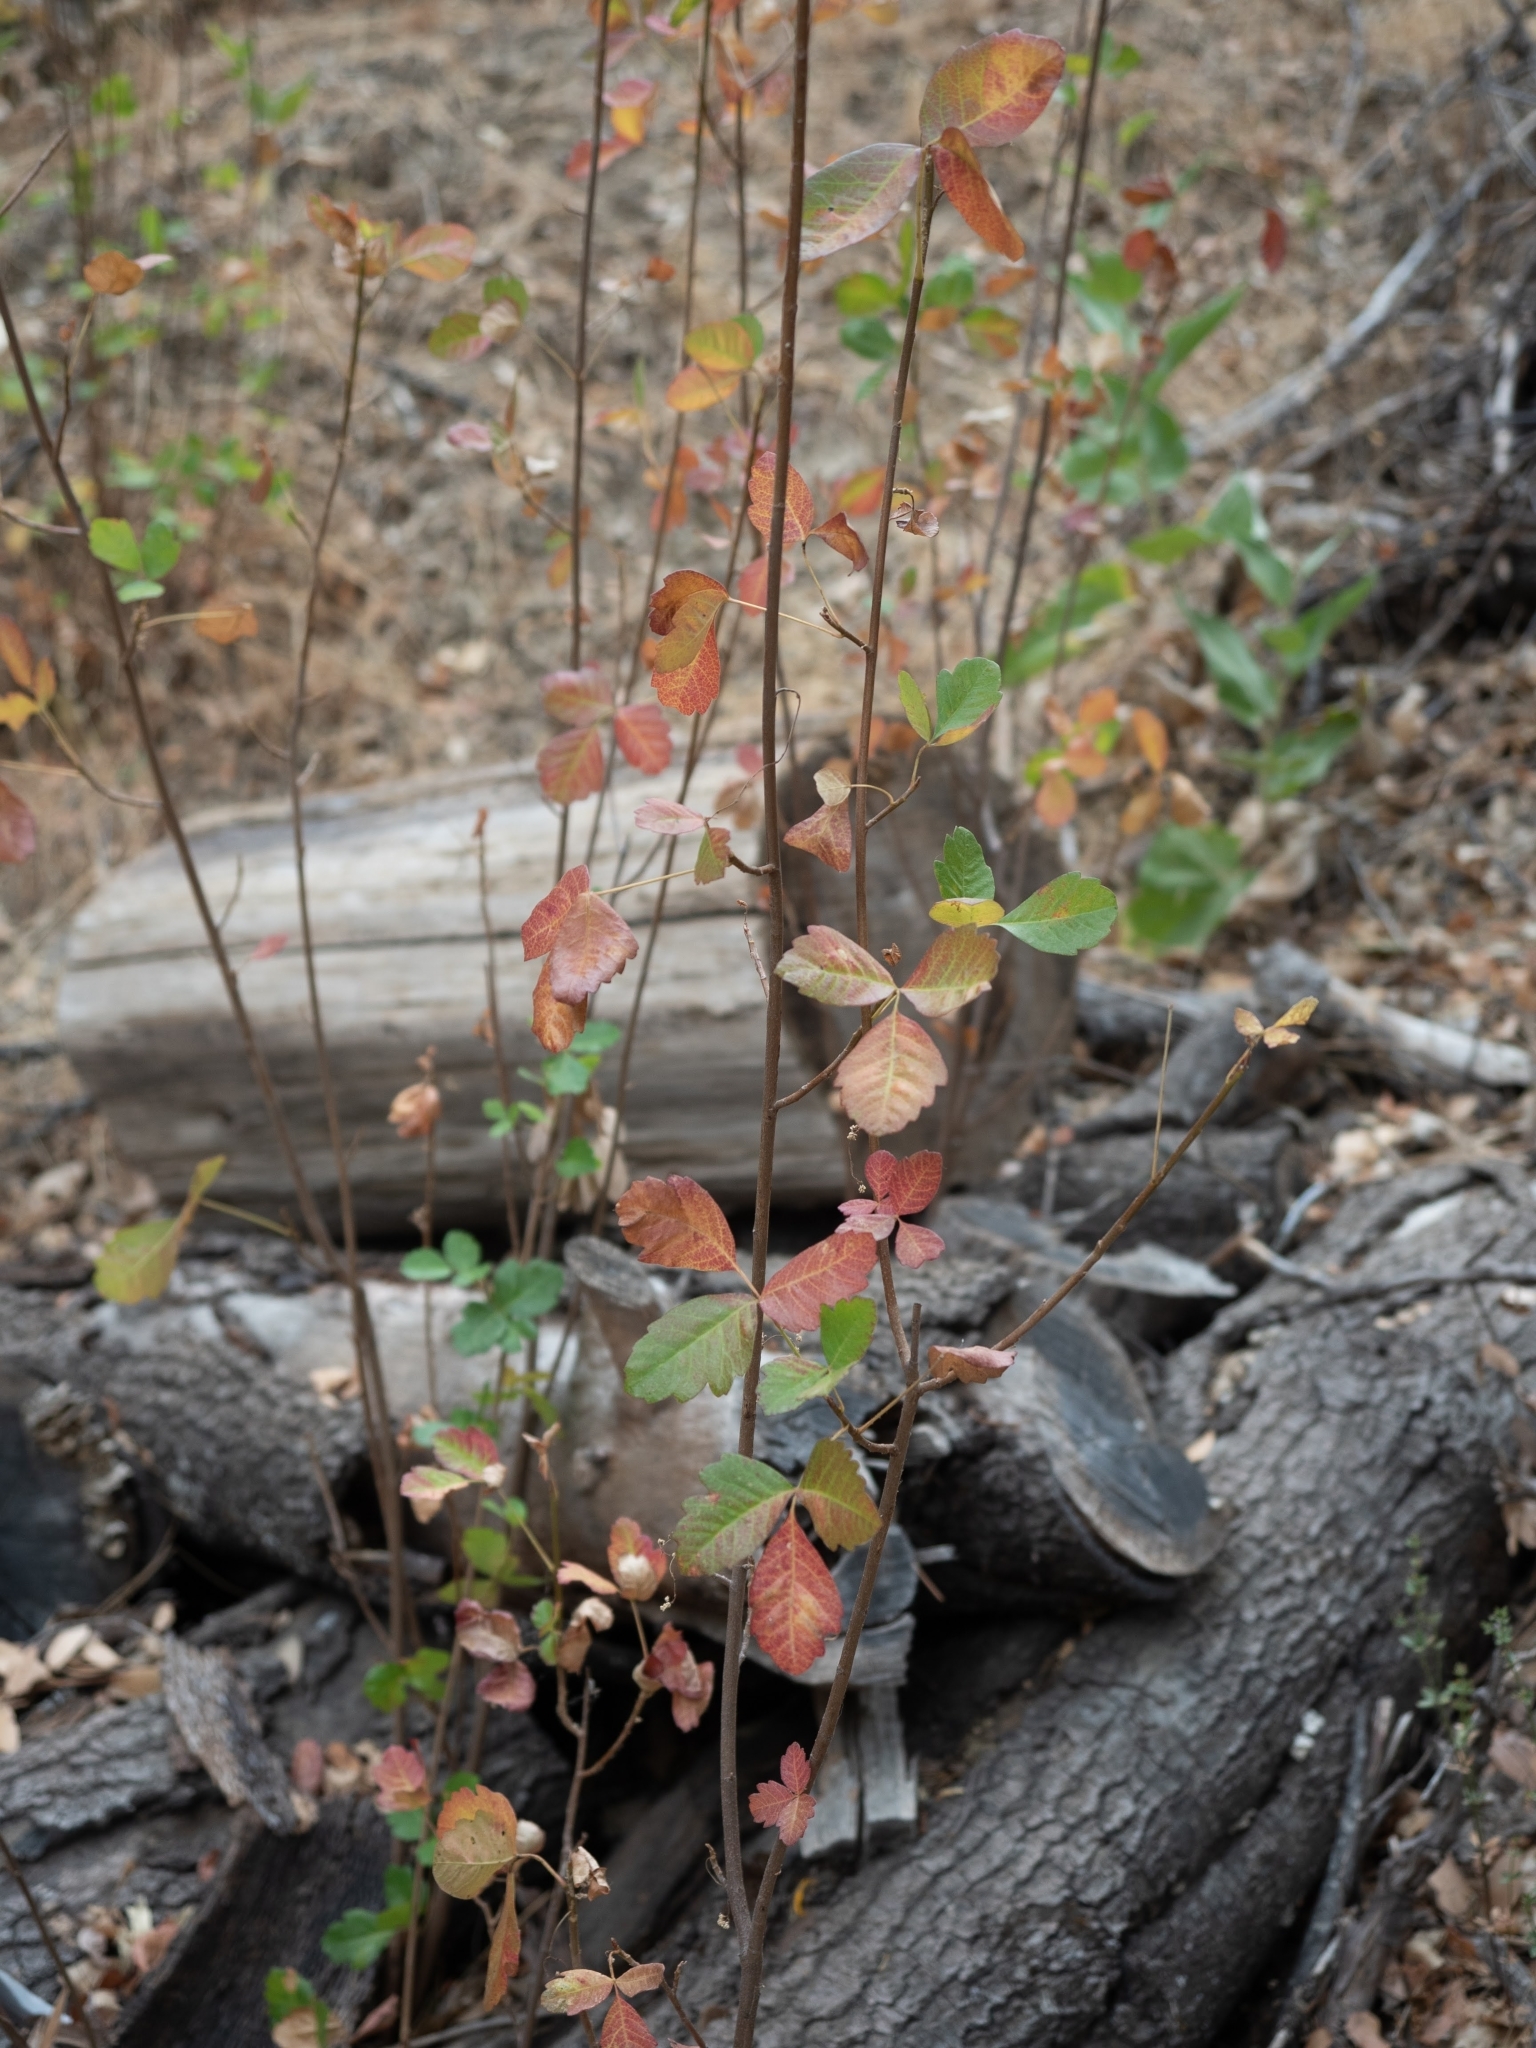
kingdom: Plantae
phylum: Tracheophyta
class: Magnoliopsida
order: Sapindales
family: Anacardiaceae
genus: Toxicodendron
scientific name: Toxicodendron diversilobum
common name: Pacific poison-oak
